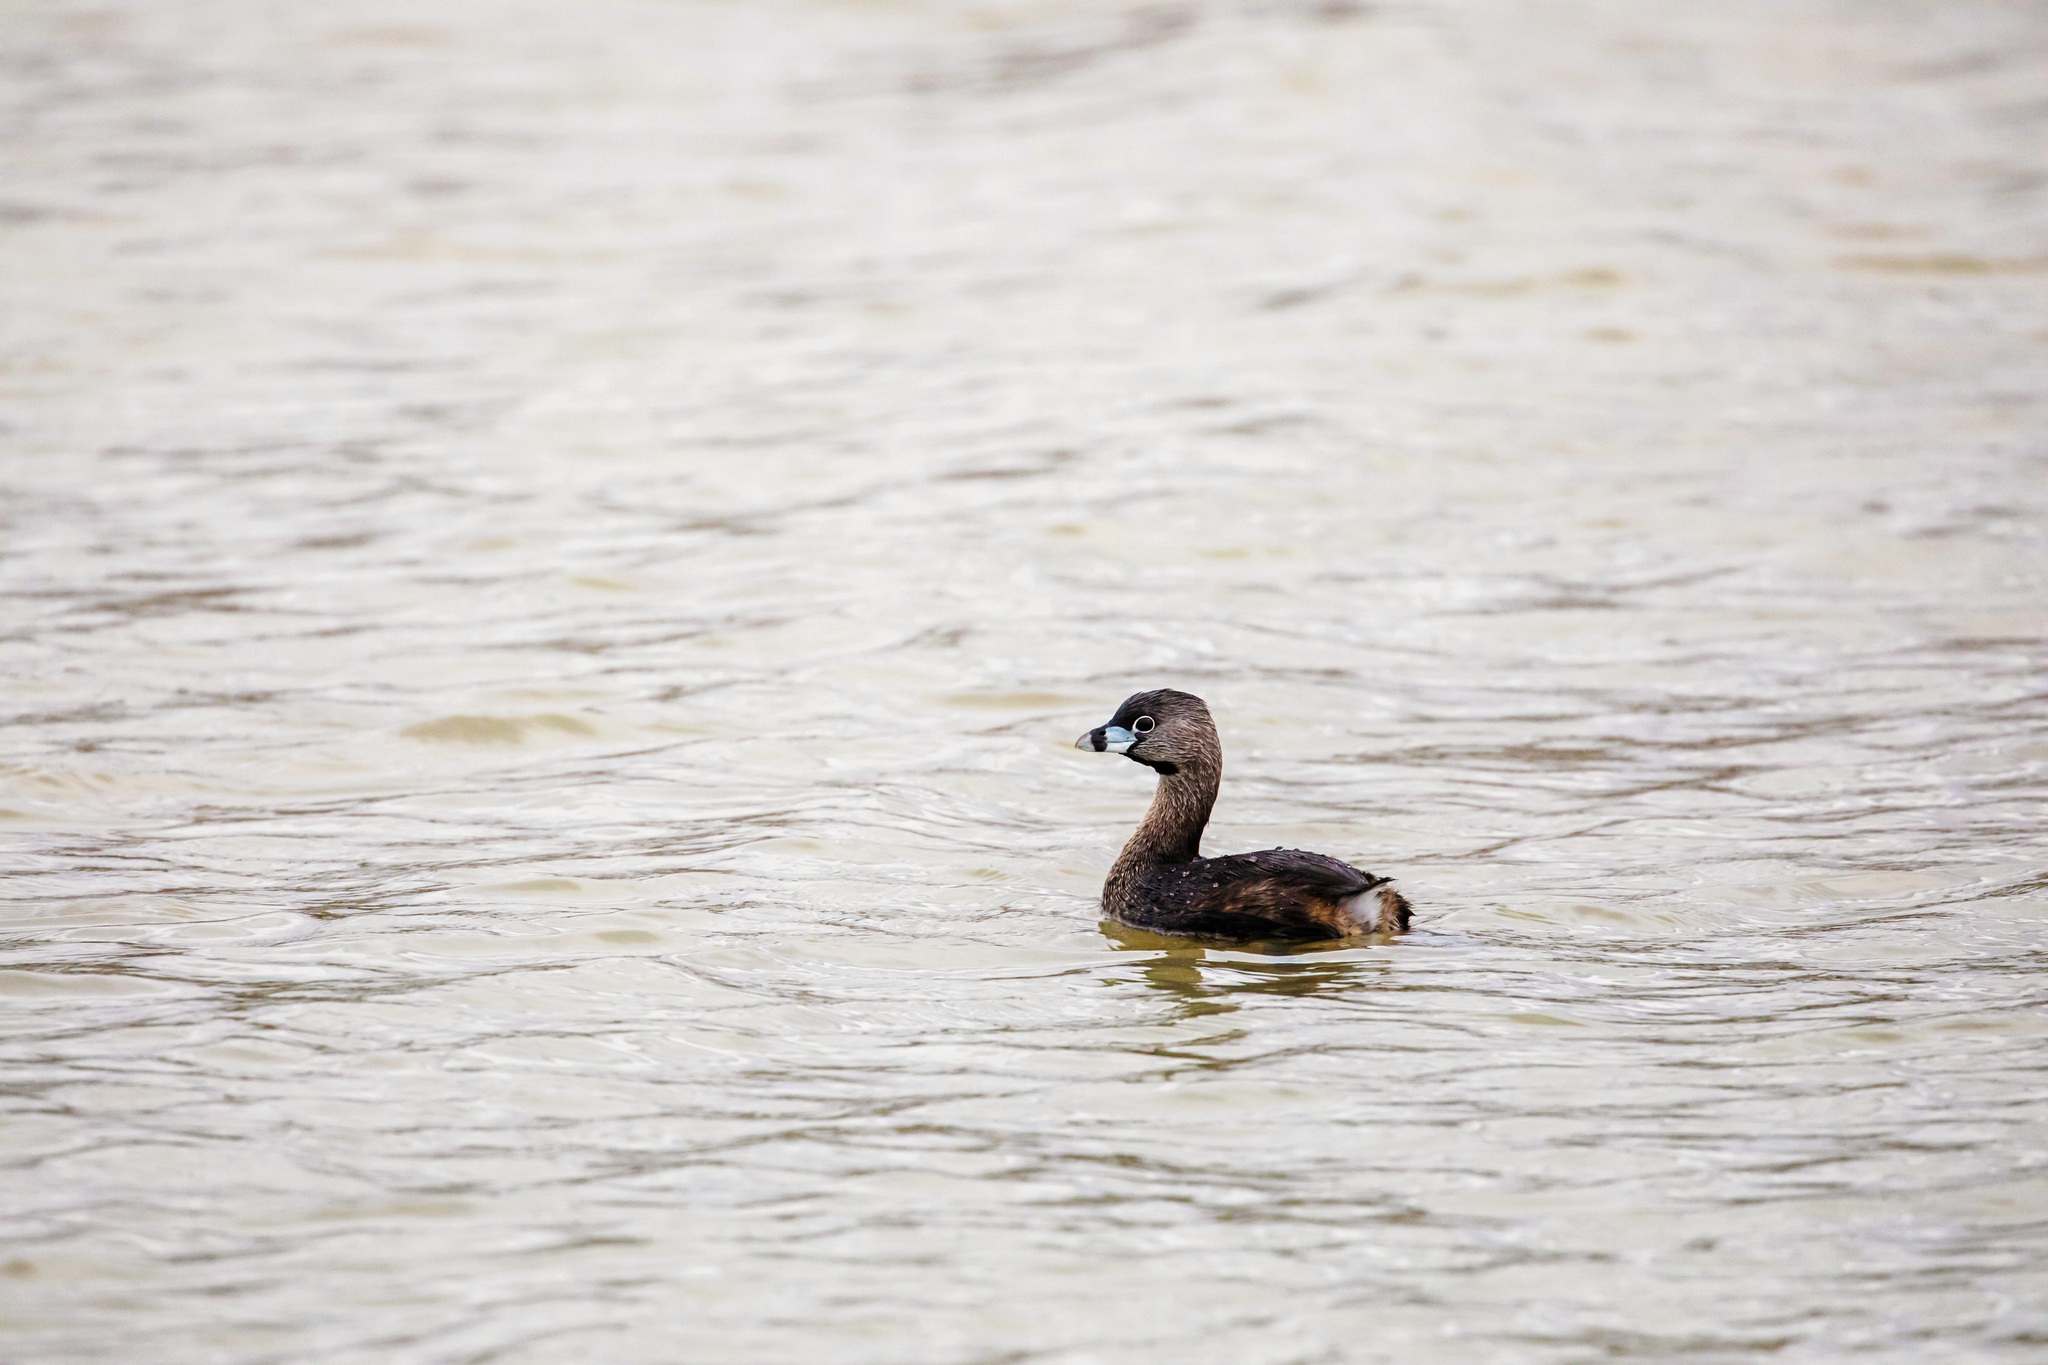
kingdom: Animalia
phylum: Chordata
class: Aves
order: Podicipediformes
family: Podicipedidae
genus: Podilymbus
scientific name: Podilymbus podiceps
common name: Pied-billed grebe
